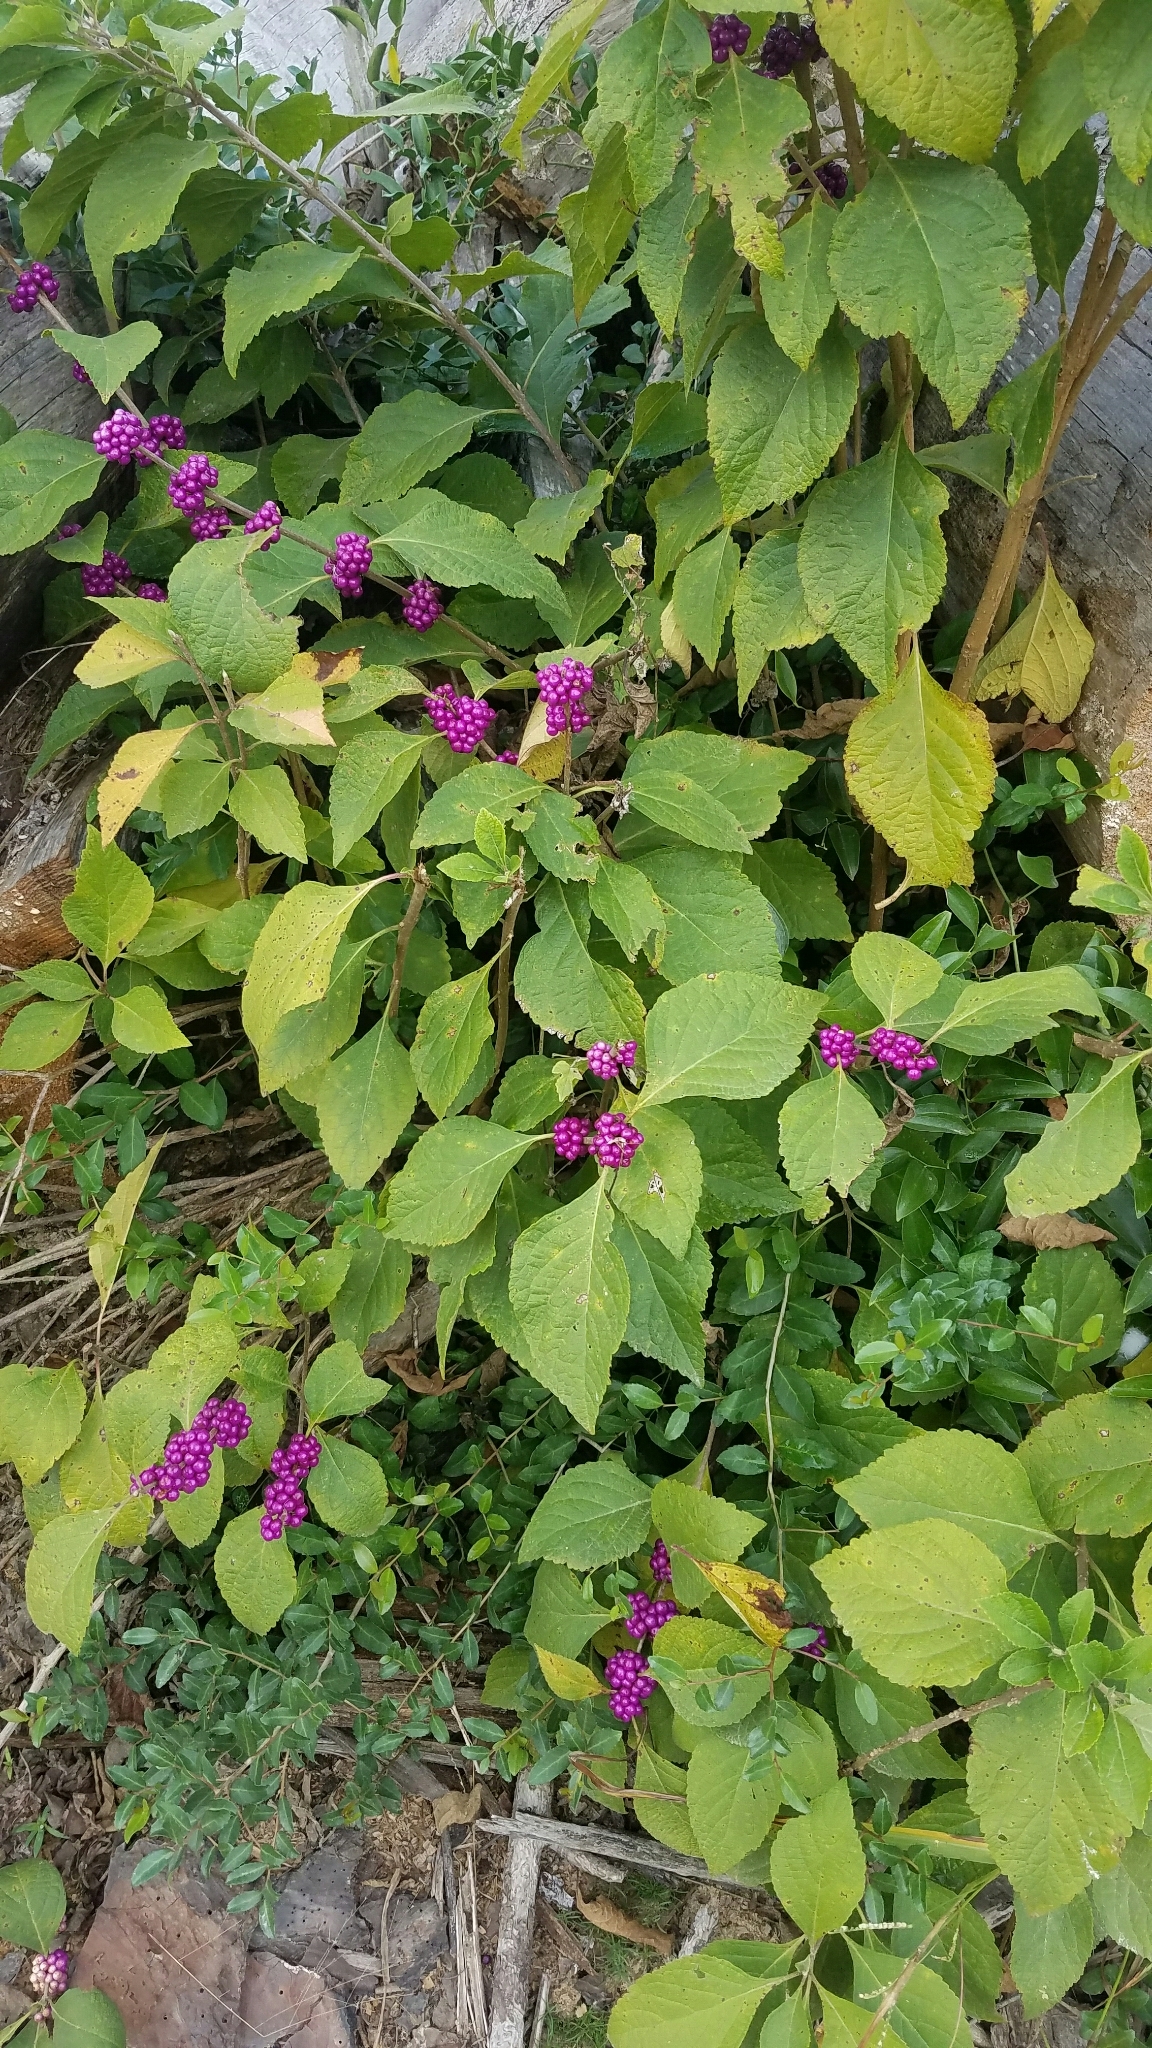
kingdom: Plantae
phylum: Tracheophyta
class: Magnoliopsida
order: Lamiales
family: Lamiaceae
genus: Callicarpa
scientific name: Callicarpa americana
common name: American beautyberry
